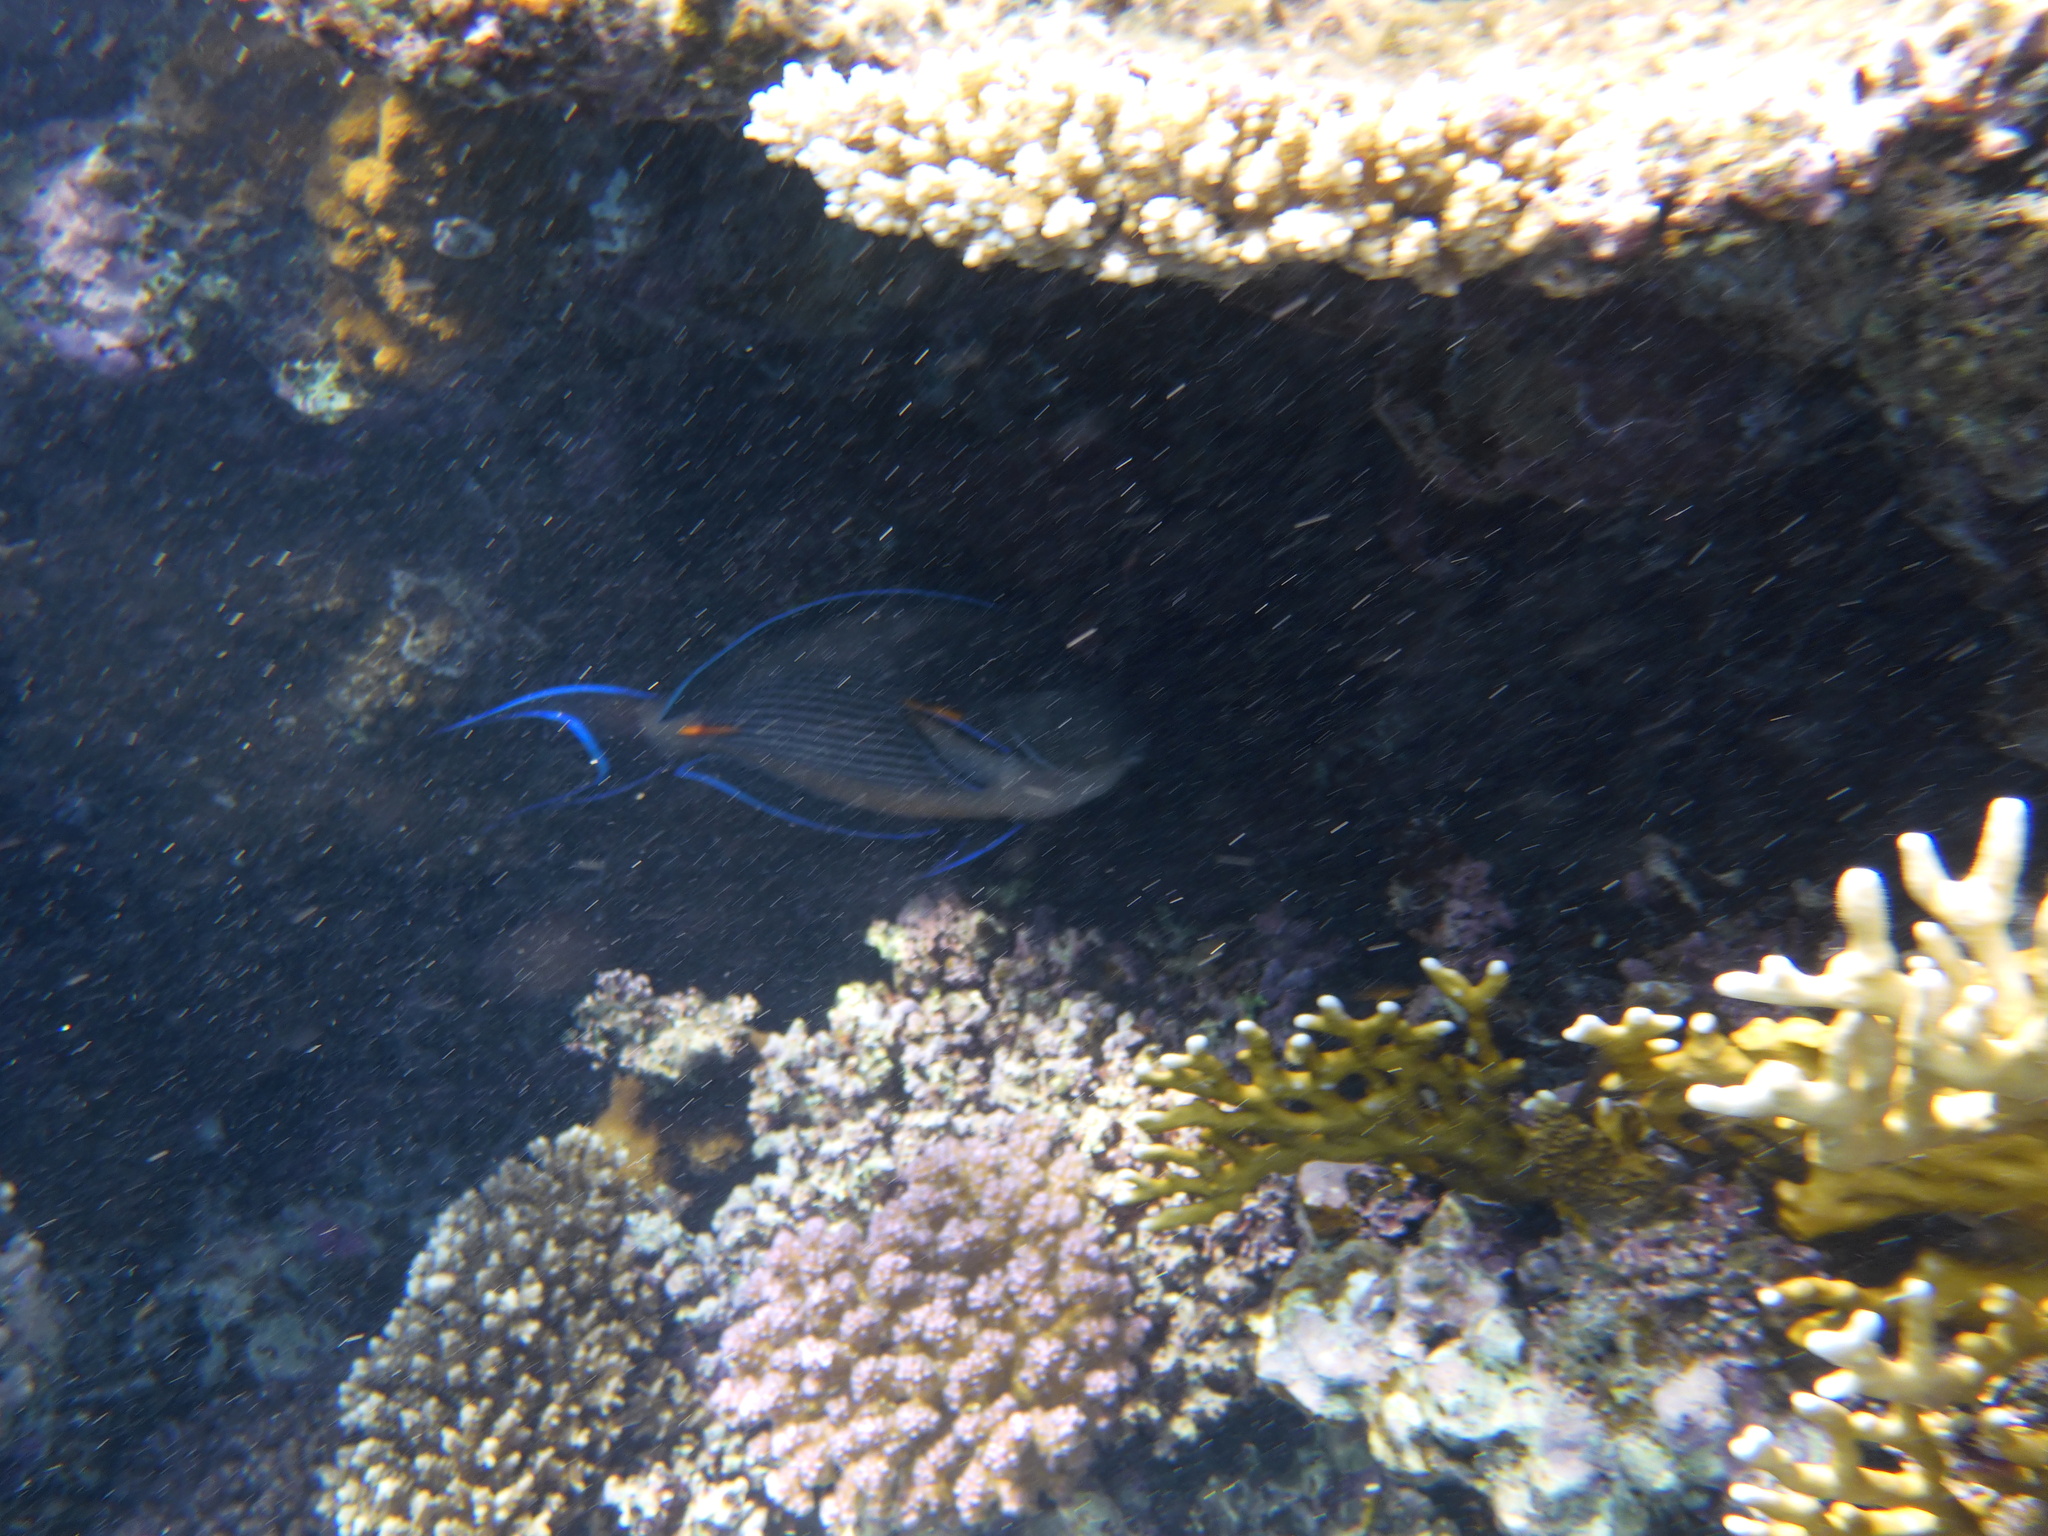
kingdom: Animalia
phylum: Chordata
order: Perciformes
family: Acanthuridae
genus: Acanthurus
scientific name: Acanthurus sohal
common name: Red sea surgeonfish
